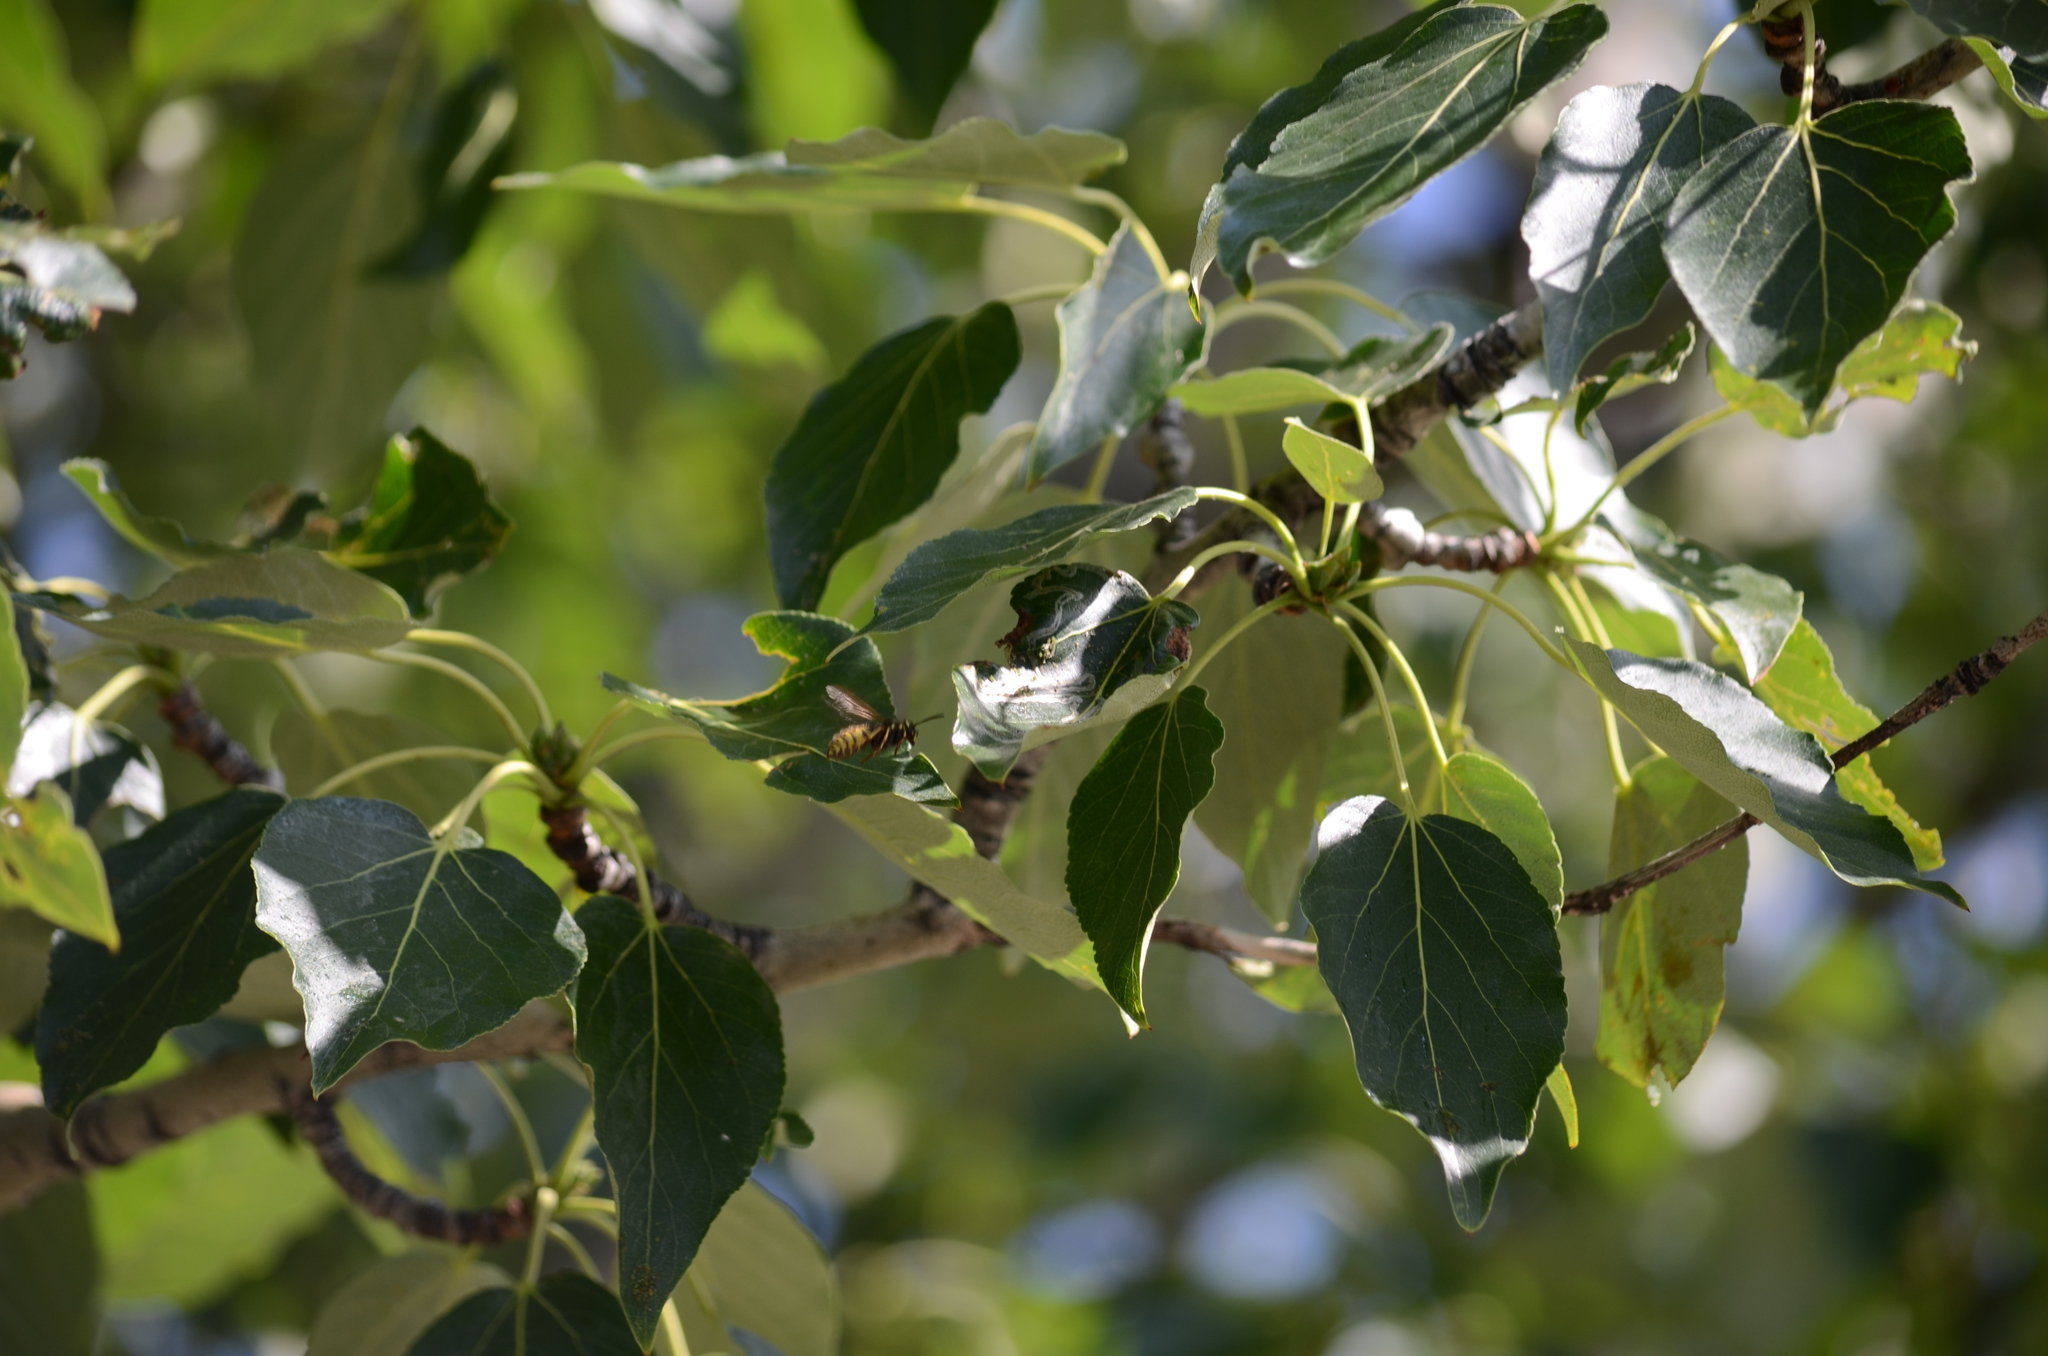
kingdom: Animalia
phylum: Arthropoda
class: Insecta
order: Hymenoptera
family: Vespidae
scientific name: Vespidae
